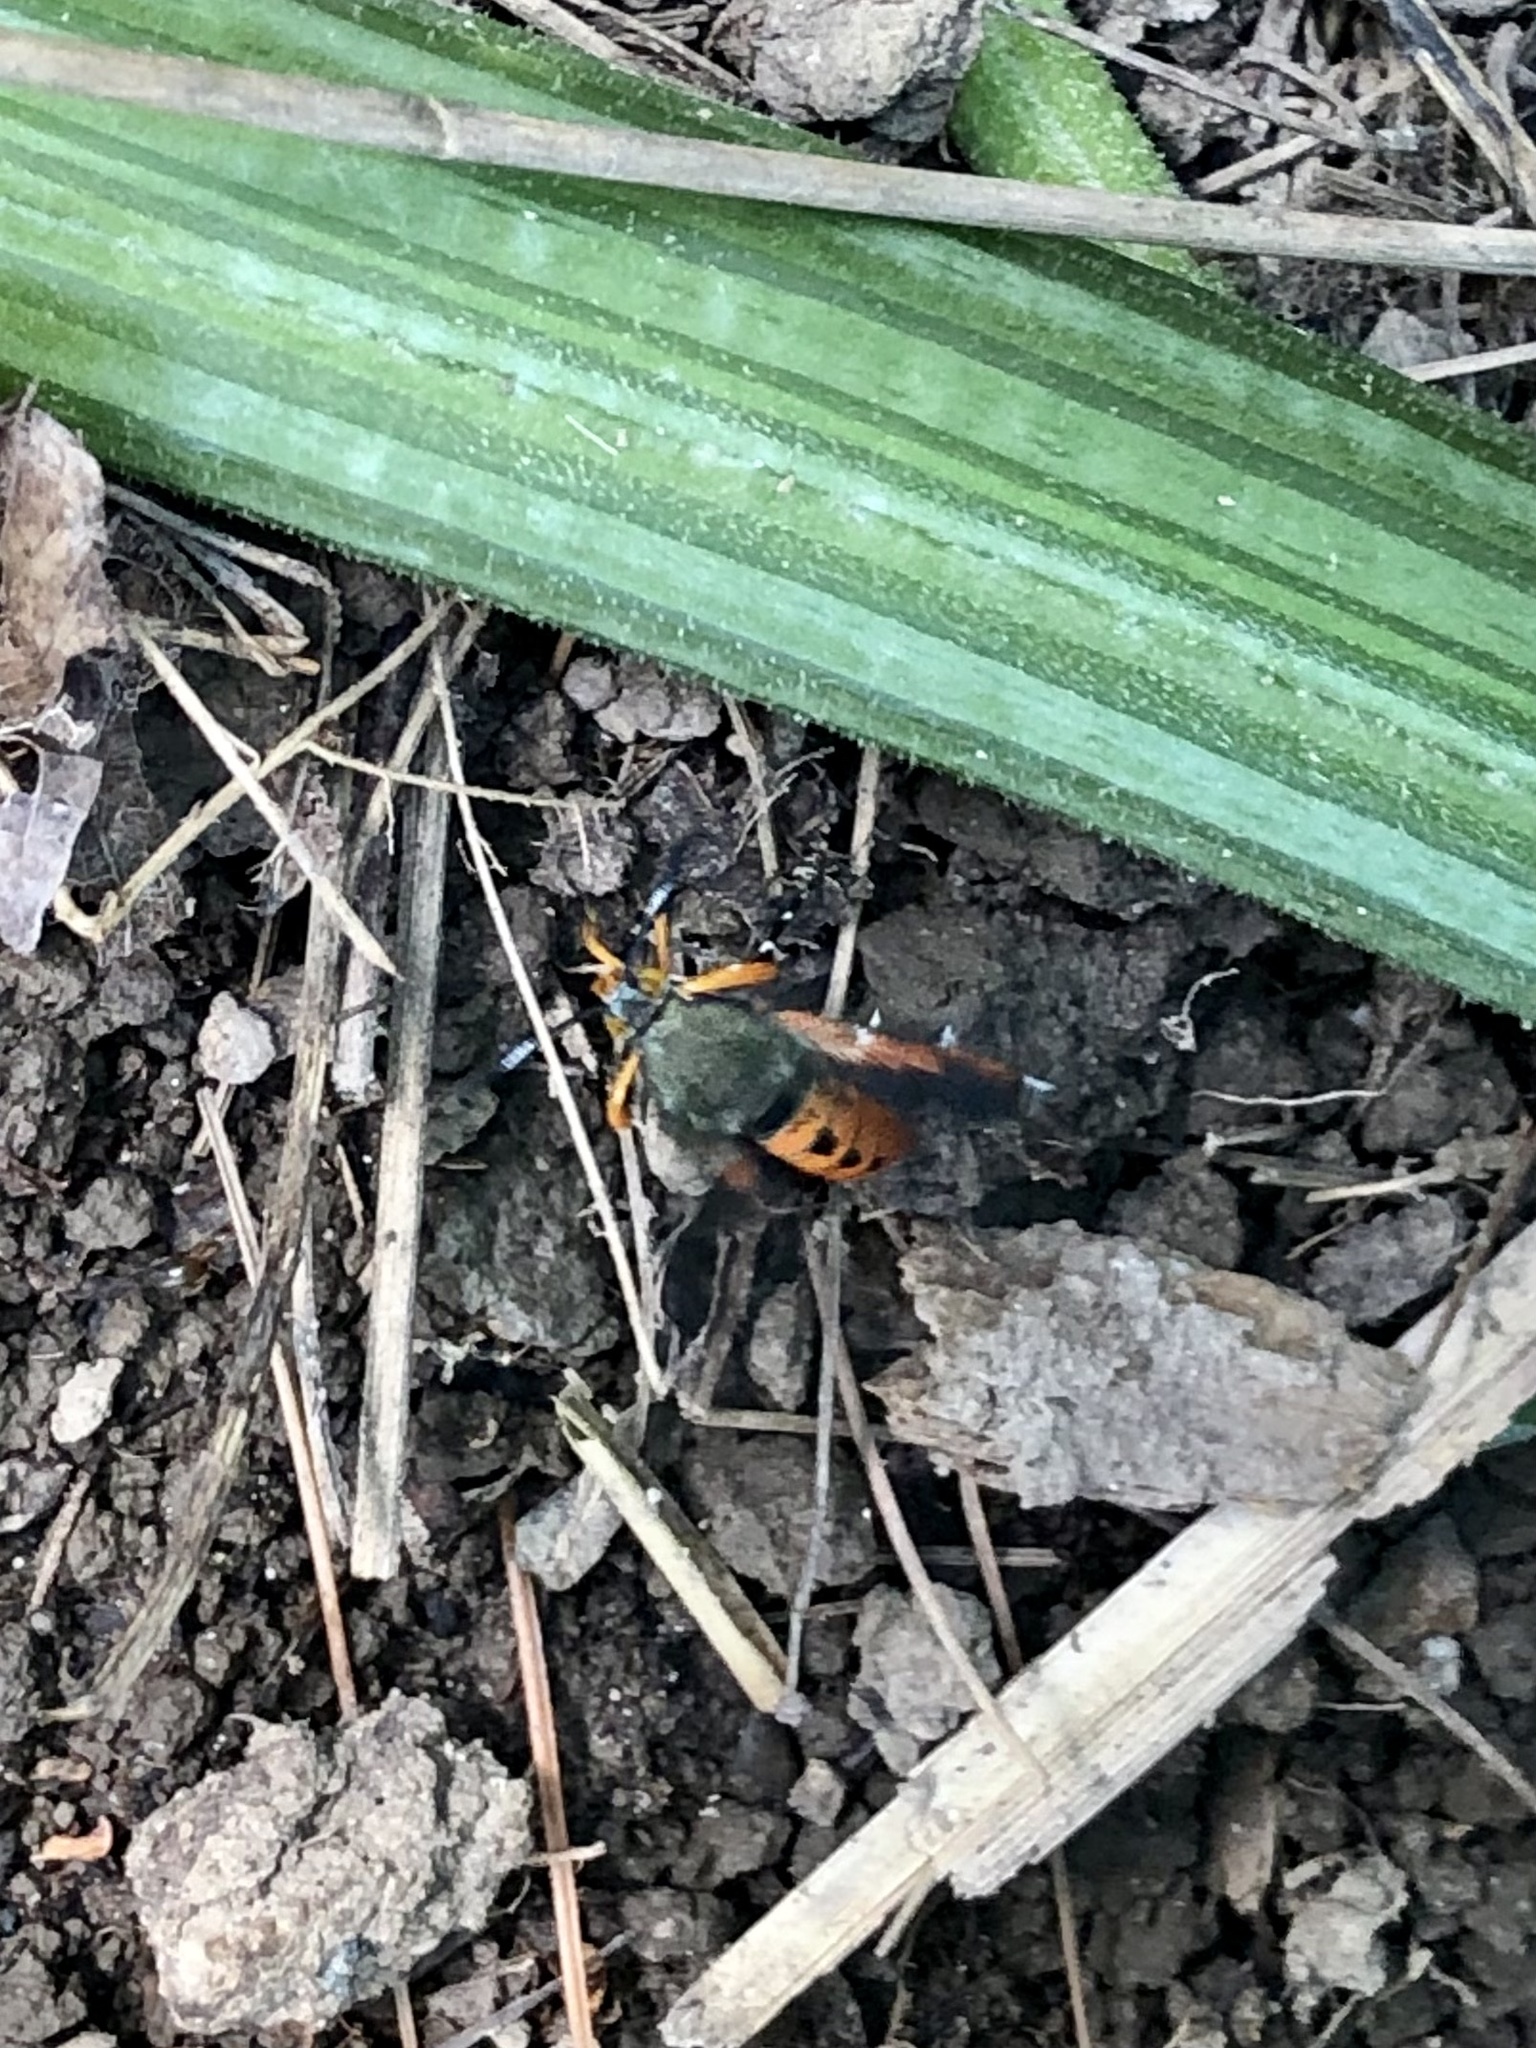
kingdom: Animalia
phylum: Arthropoda
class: Insecta
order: Lepidoptera
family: Sesiidae
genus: Eichlinia
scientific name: Eichlinia cucurbitae
